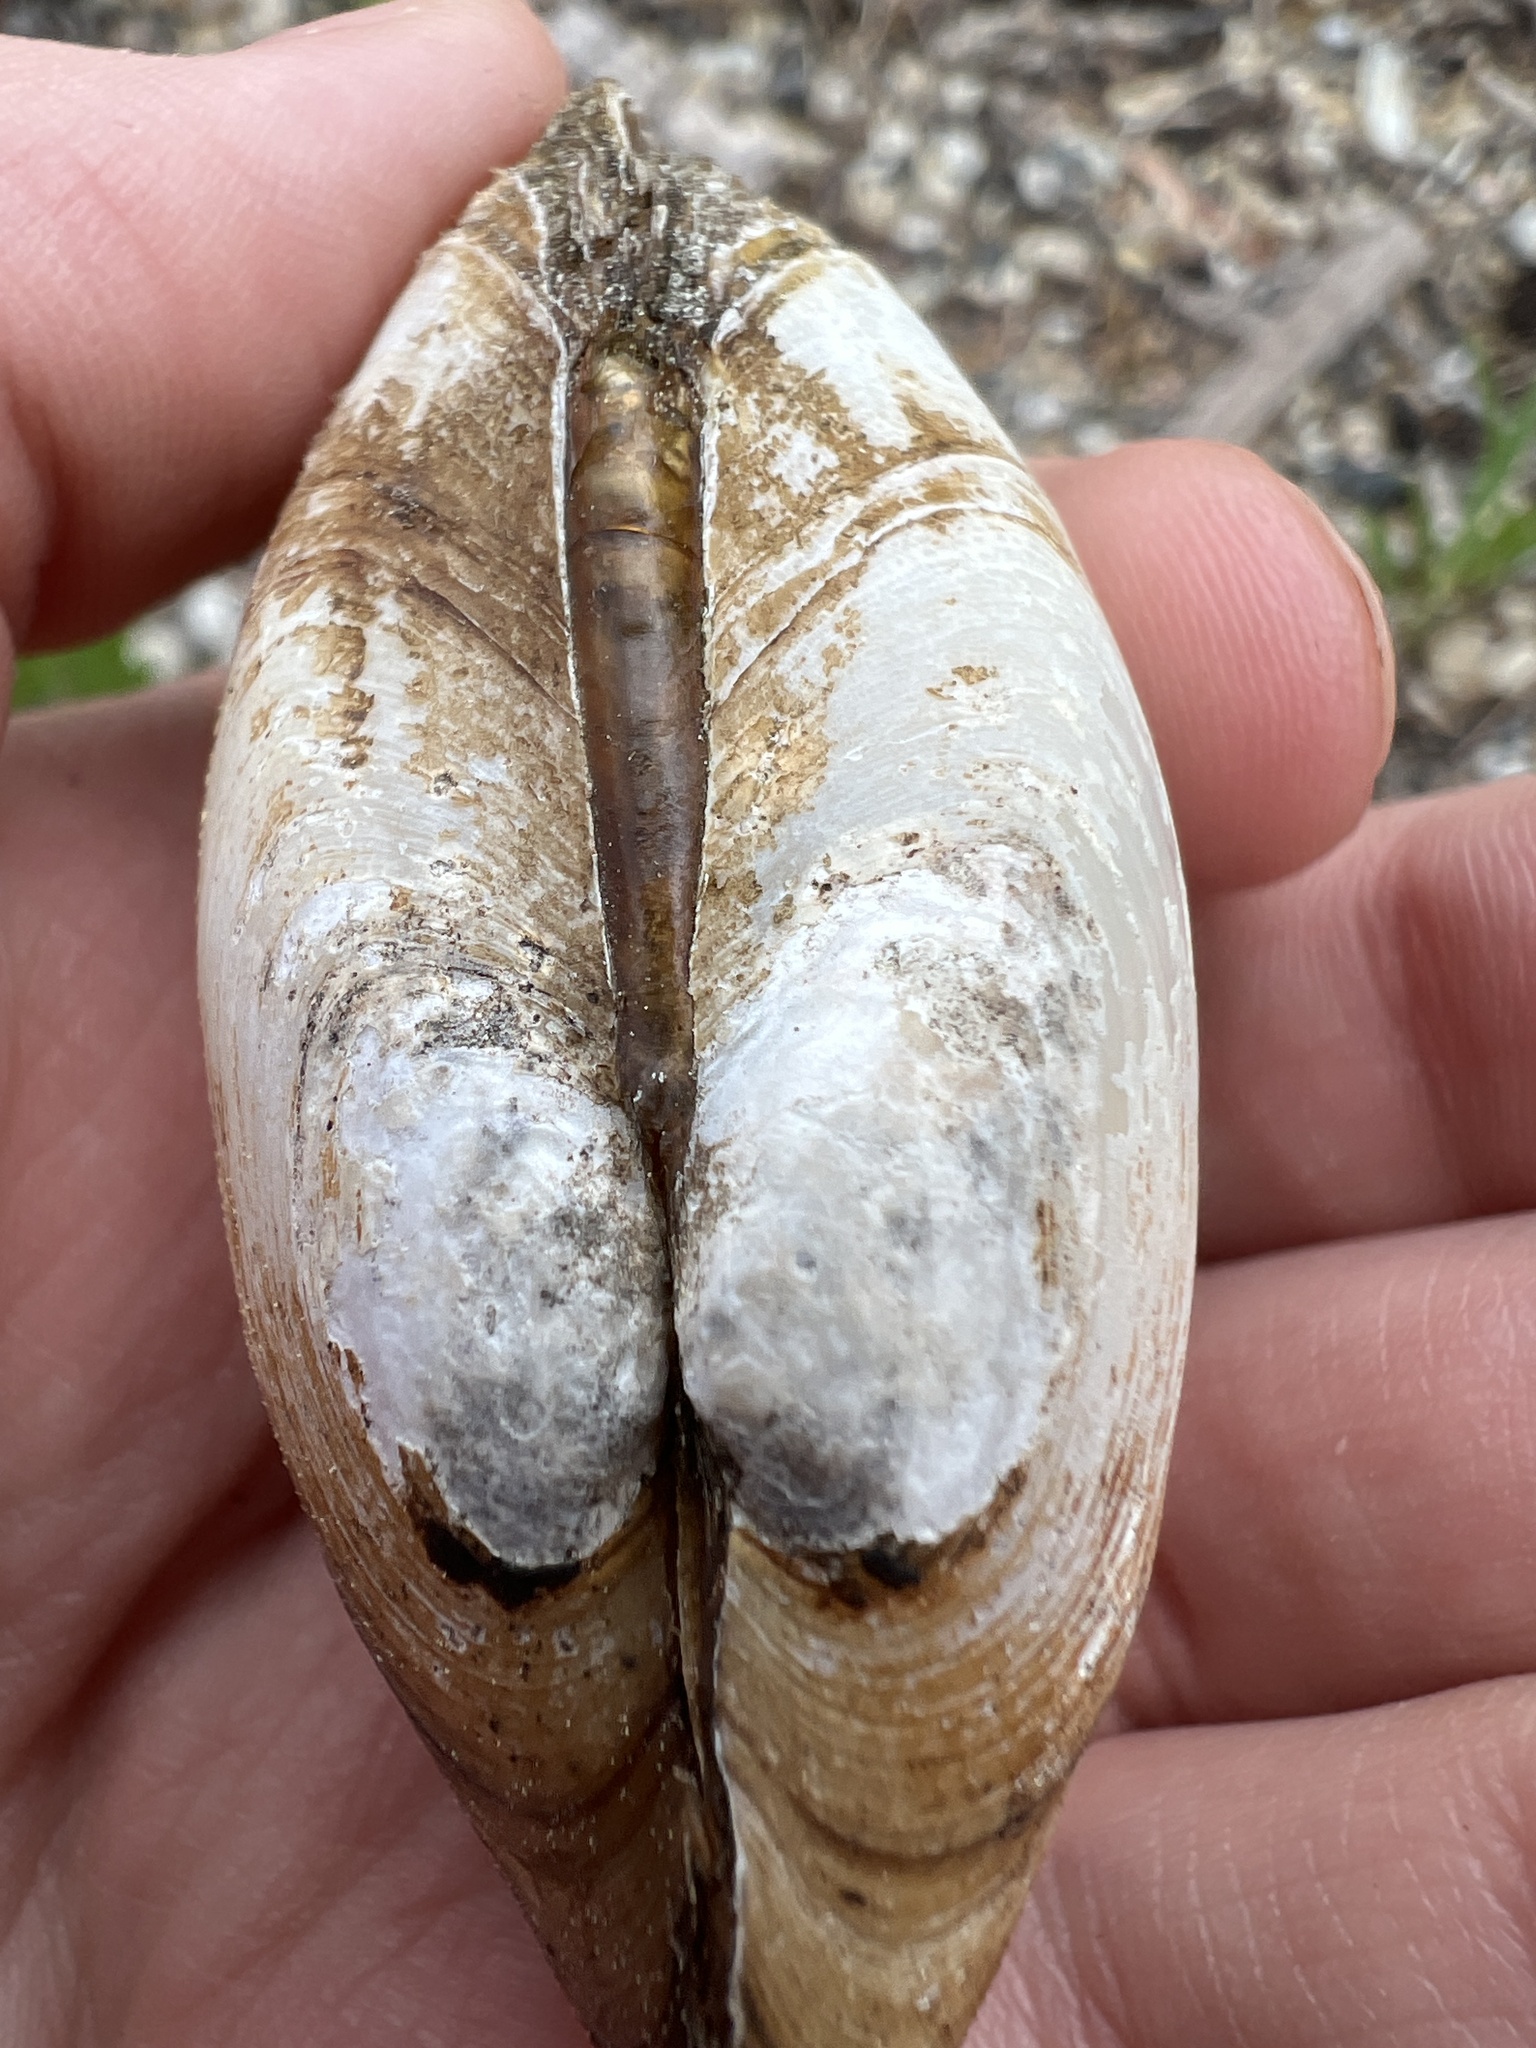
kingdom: Animalia
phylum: Mollusca
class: Bivalvia
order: Unionida
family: Unionidae
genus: Pyganodon
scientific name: Pyganodon grandis
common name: Giant floater
